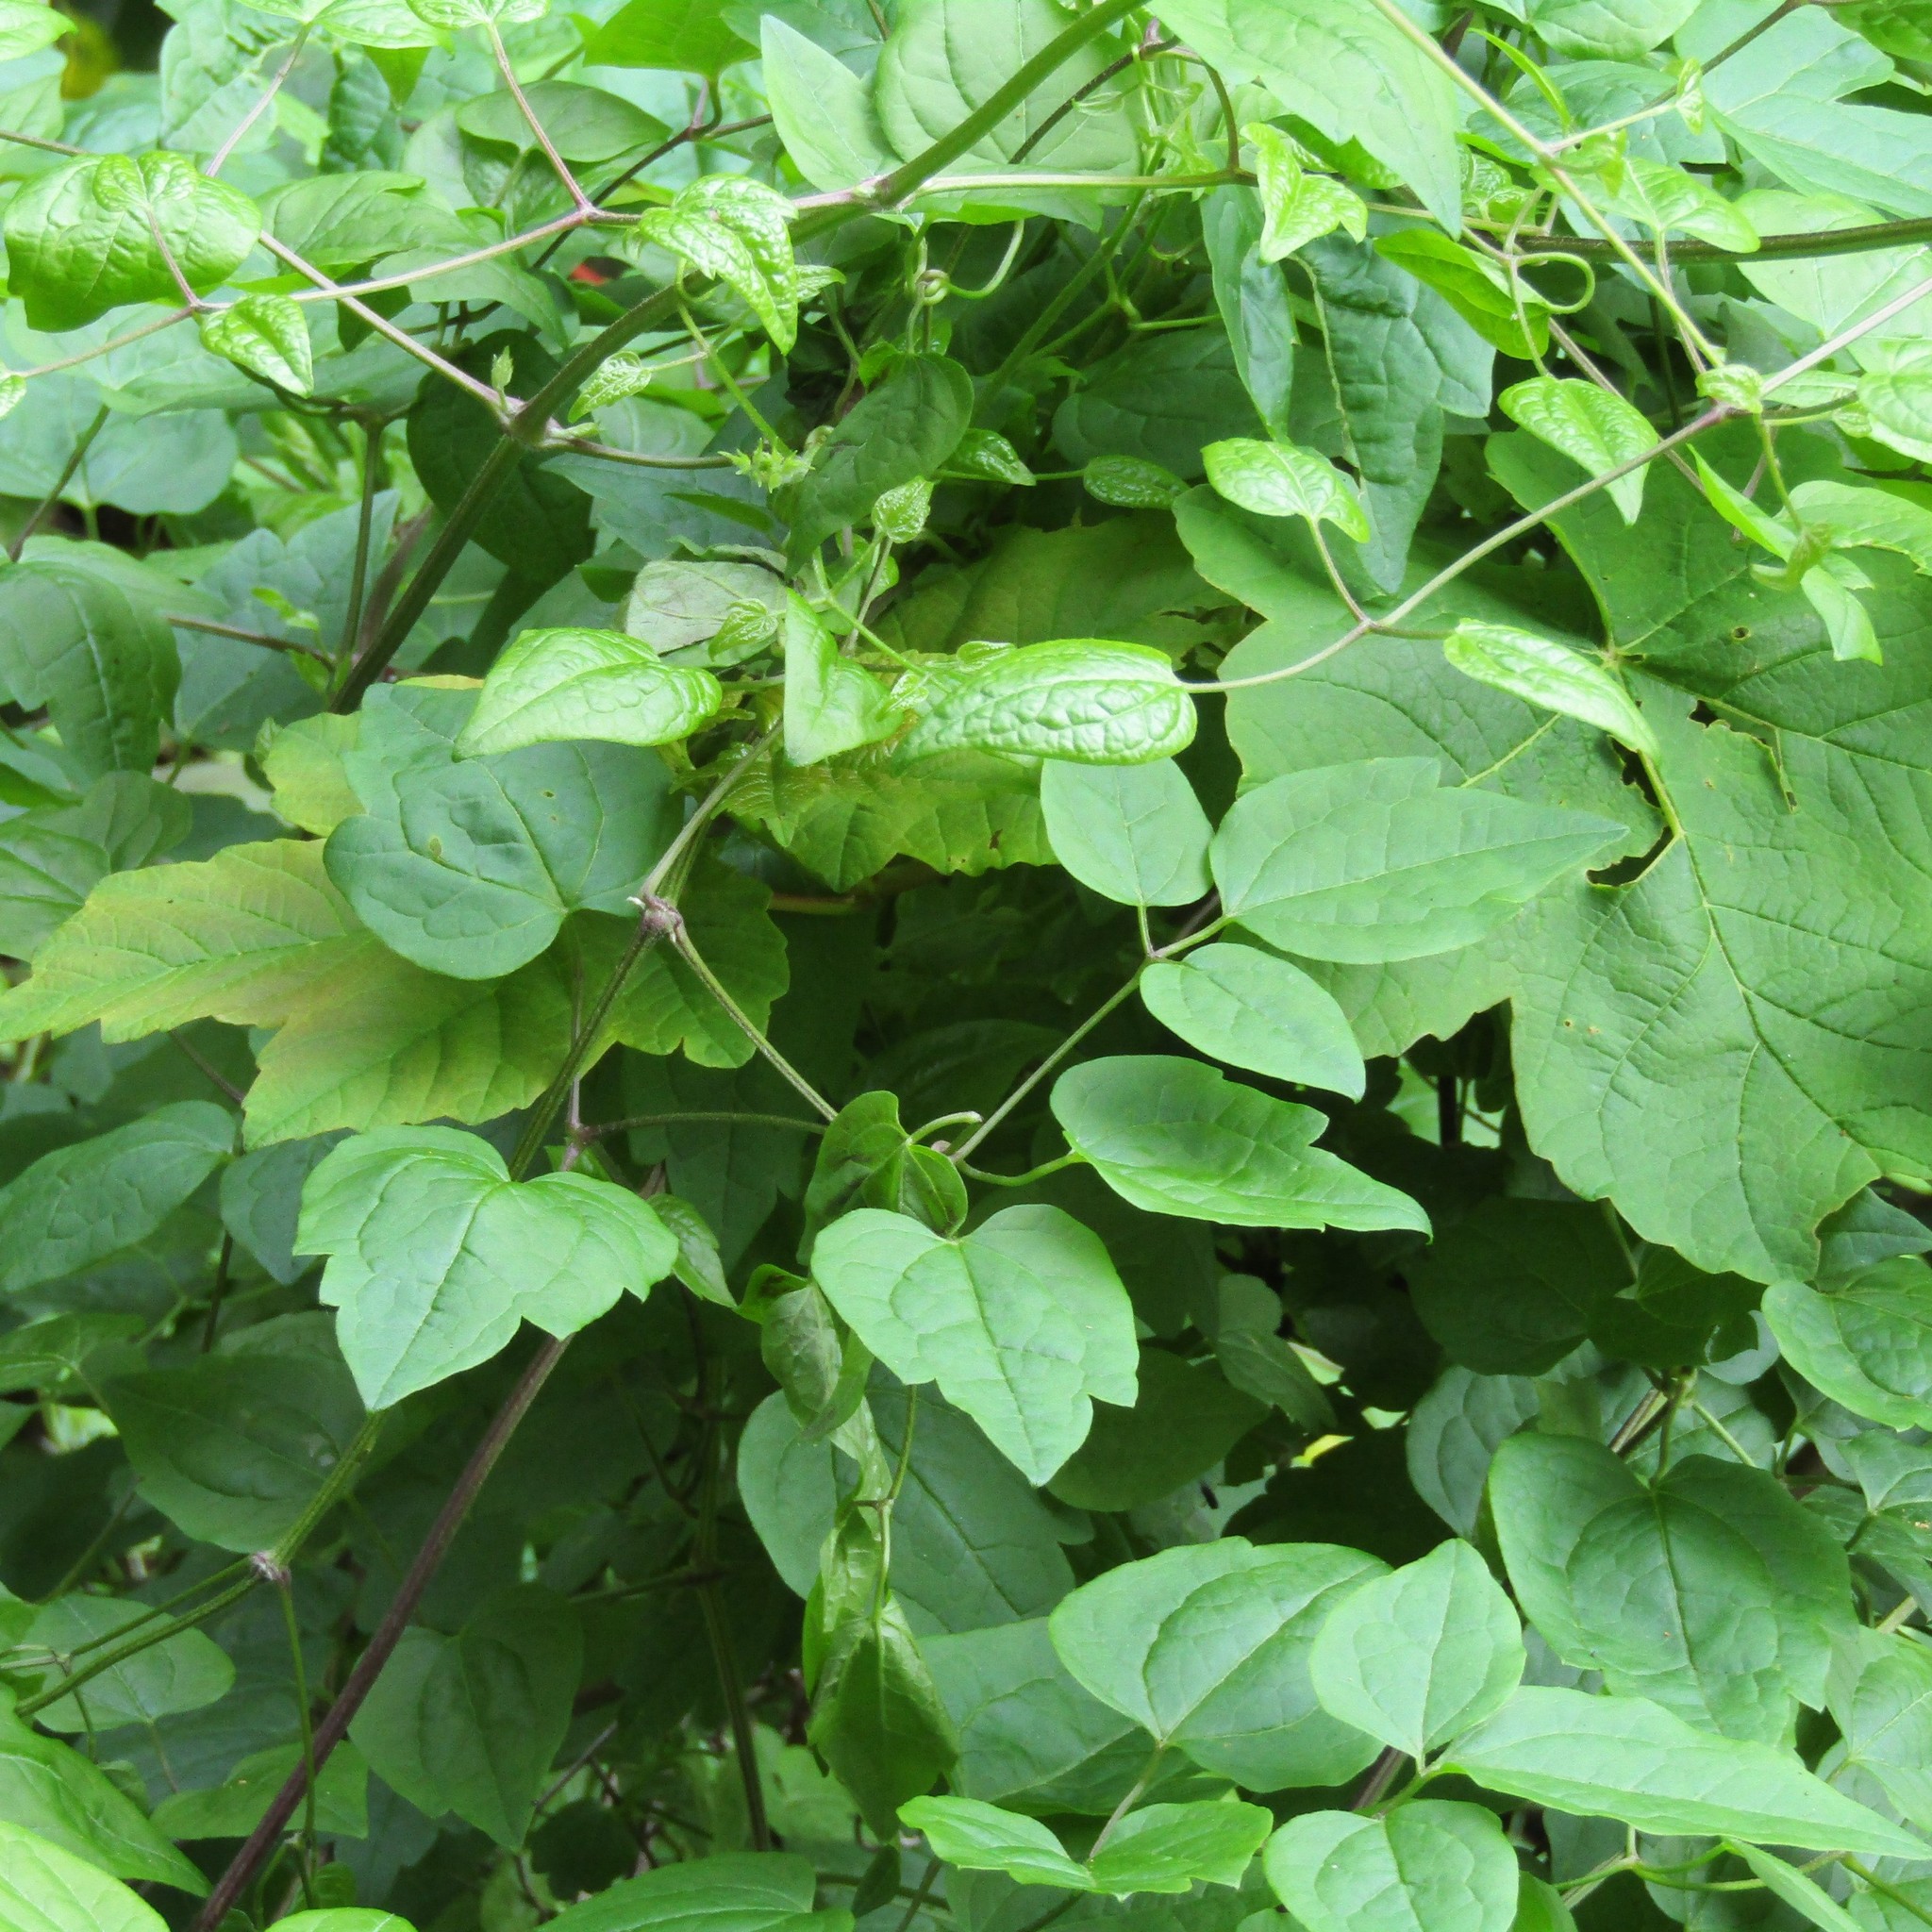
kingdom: Plantae
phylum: Tracheophyta
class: Magnoliopsida
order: Sapindales
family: Sapindaceae
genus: Acer
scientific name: Acer pseudoplatanus
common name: Sycamore
